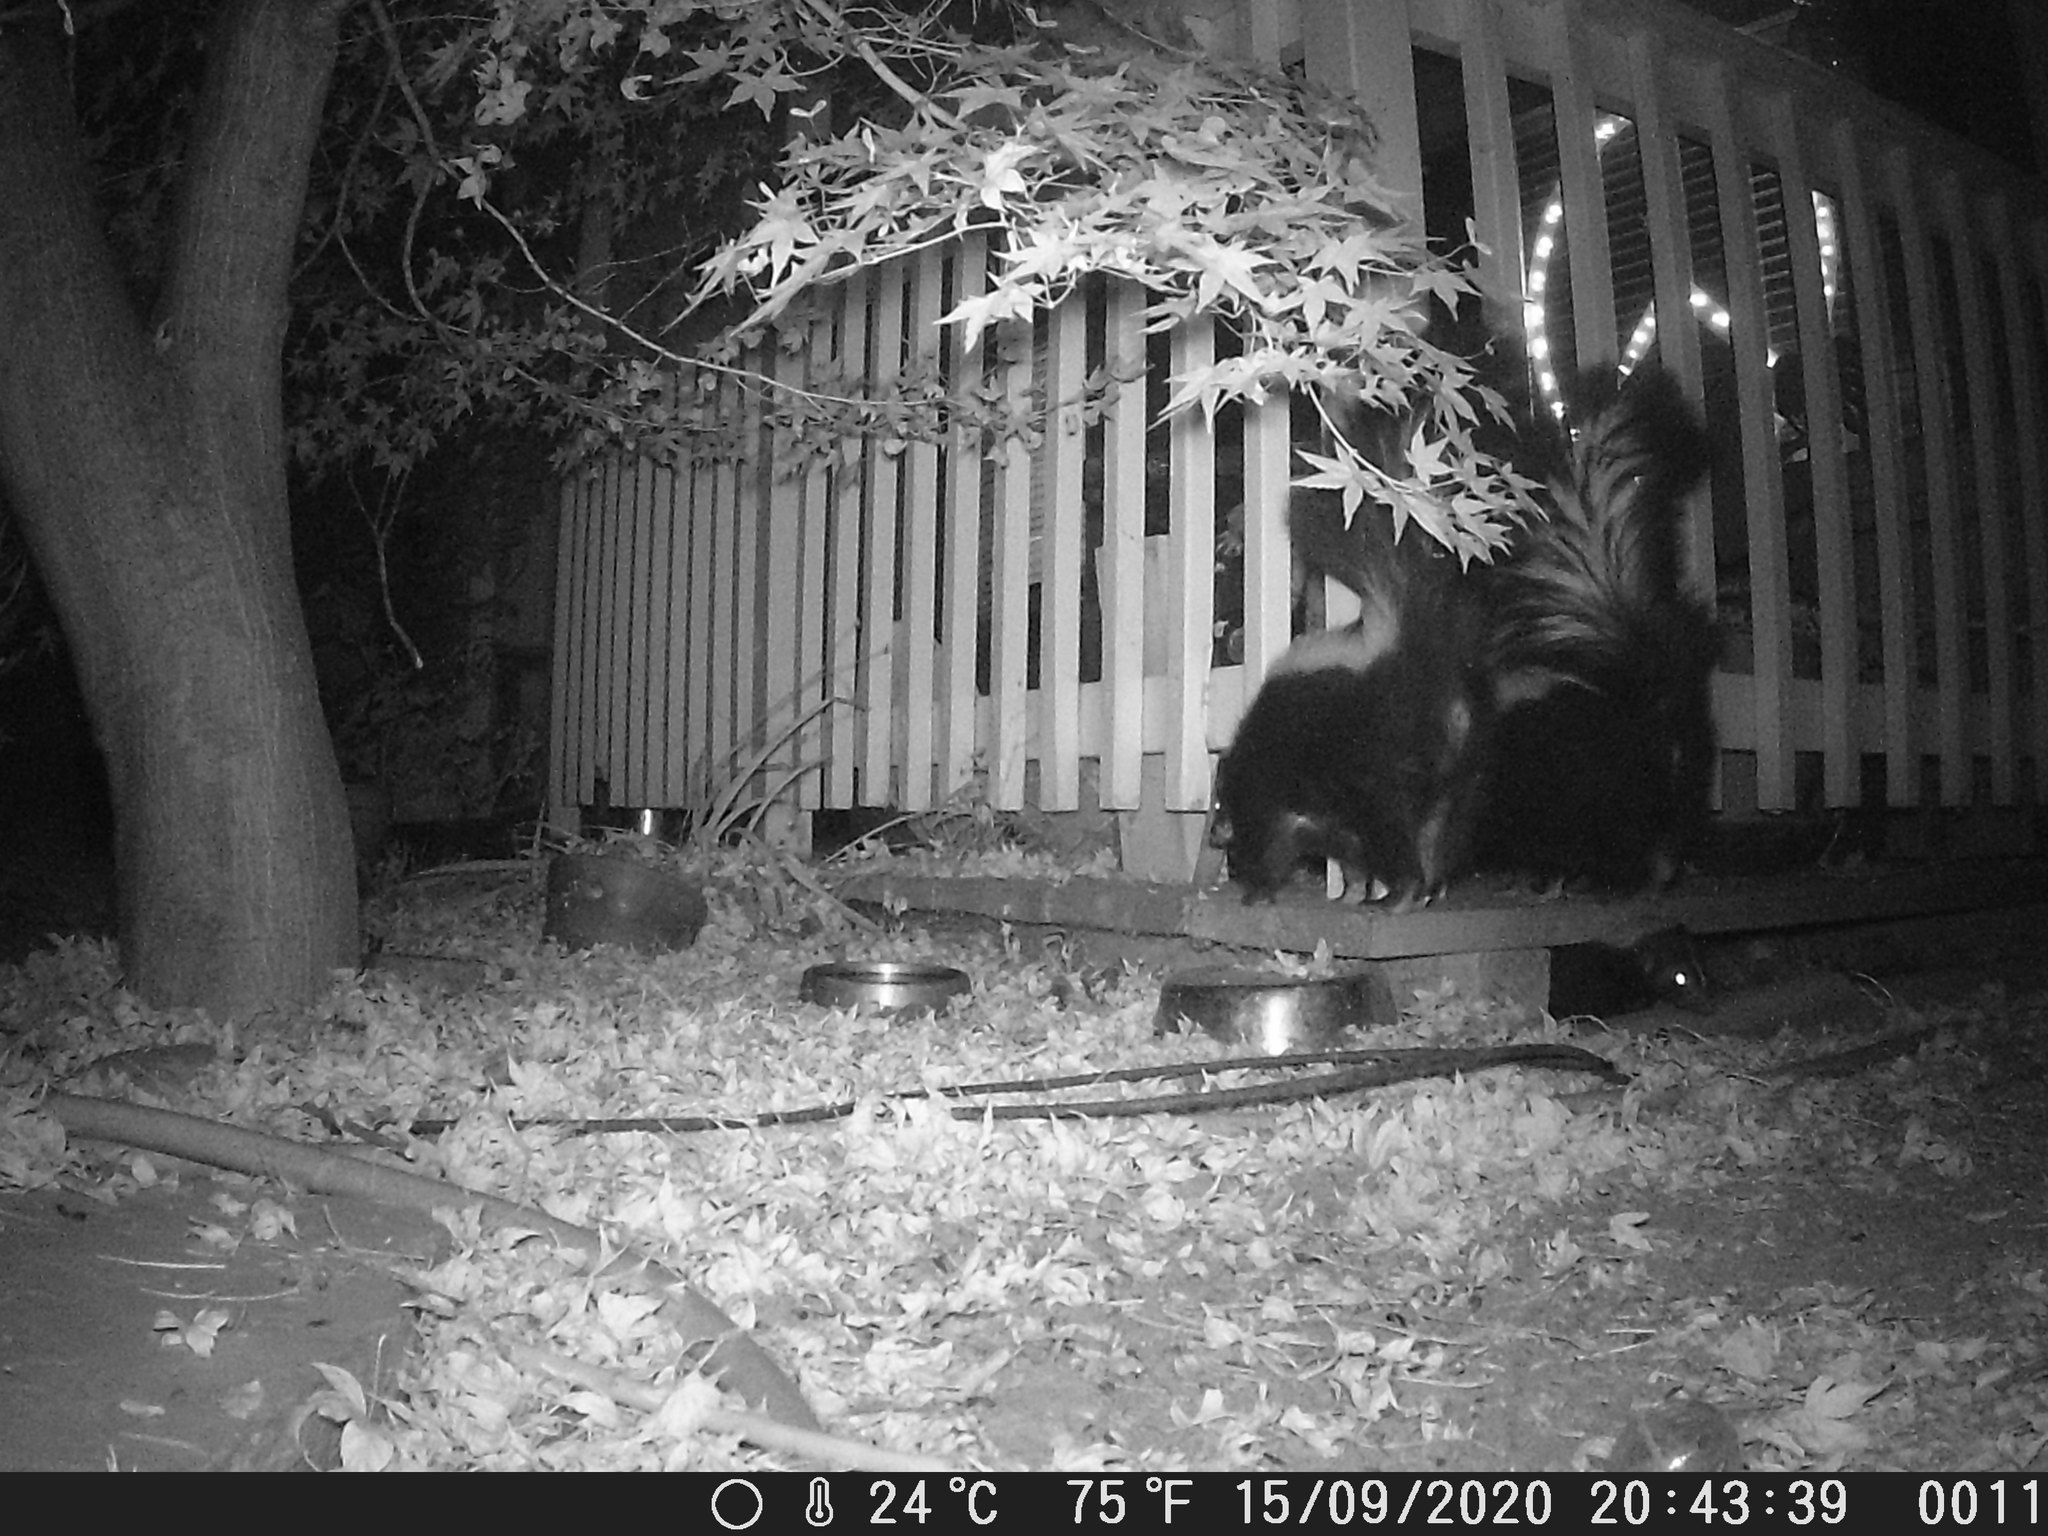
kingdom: Animalia
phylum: Chordata
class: Mammalia
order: Carnivora
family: Mephitidae
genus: Mephitis
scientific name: Mephitis mephitis
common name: Striped skunk
